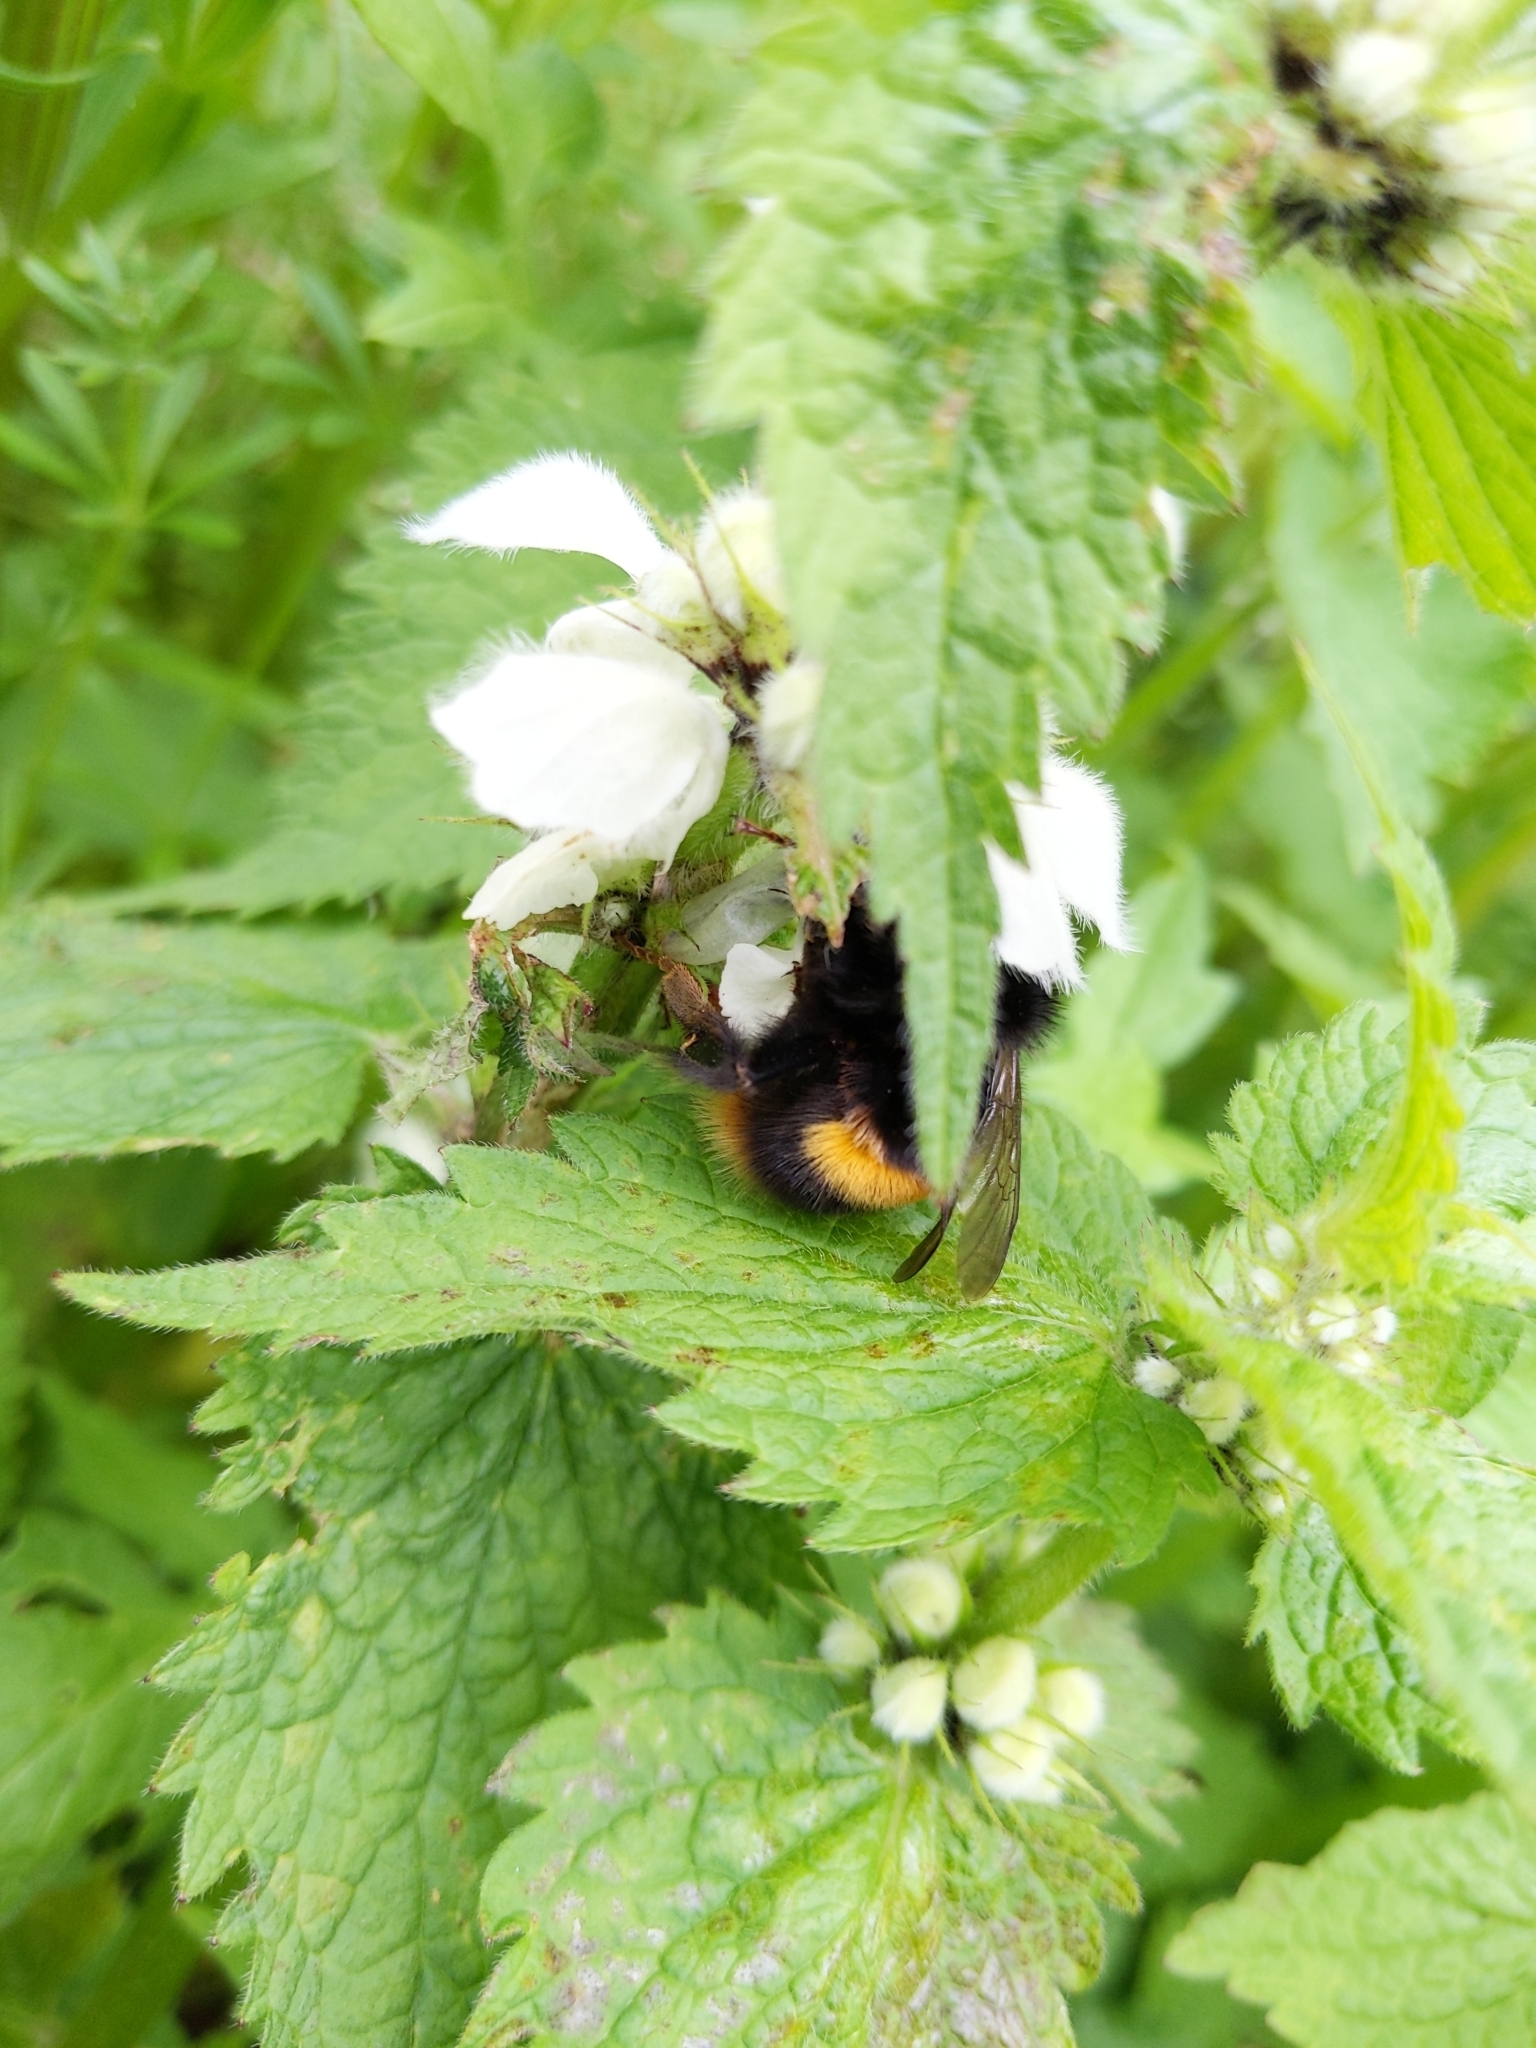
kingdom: Animalia
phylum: Arthropoda
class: Insecta
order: Hymenoptera
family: Apidae
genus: Bombus
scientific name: Bombus terrestris
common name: Buff-tailed bumblebee
